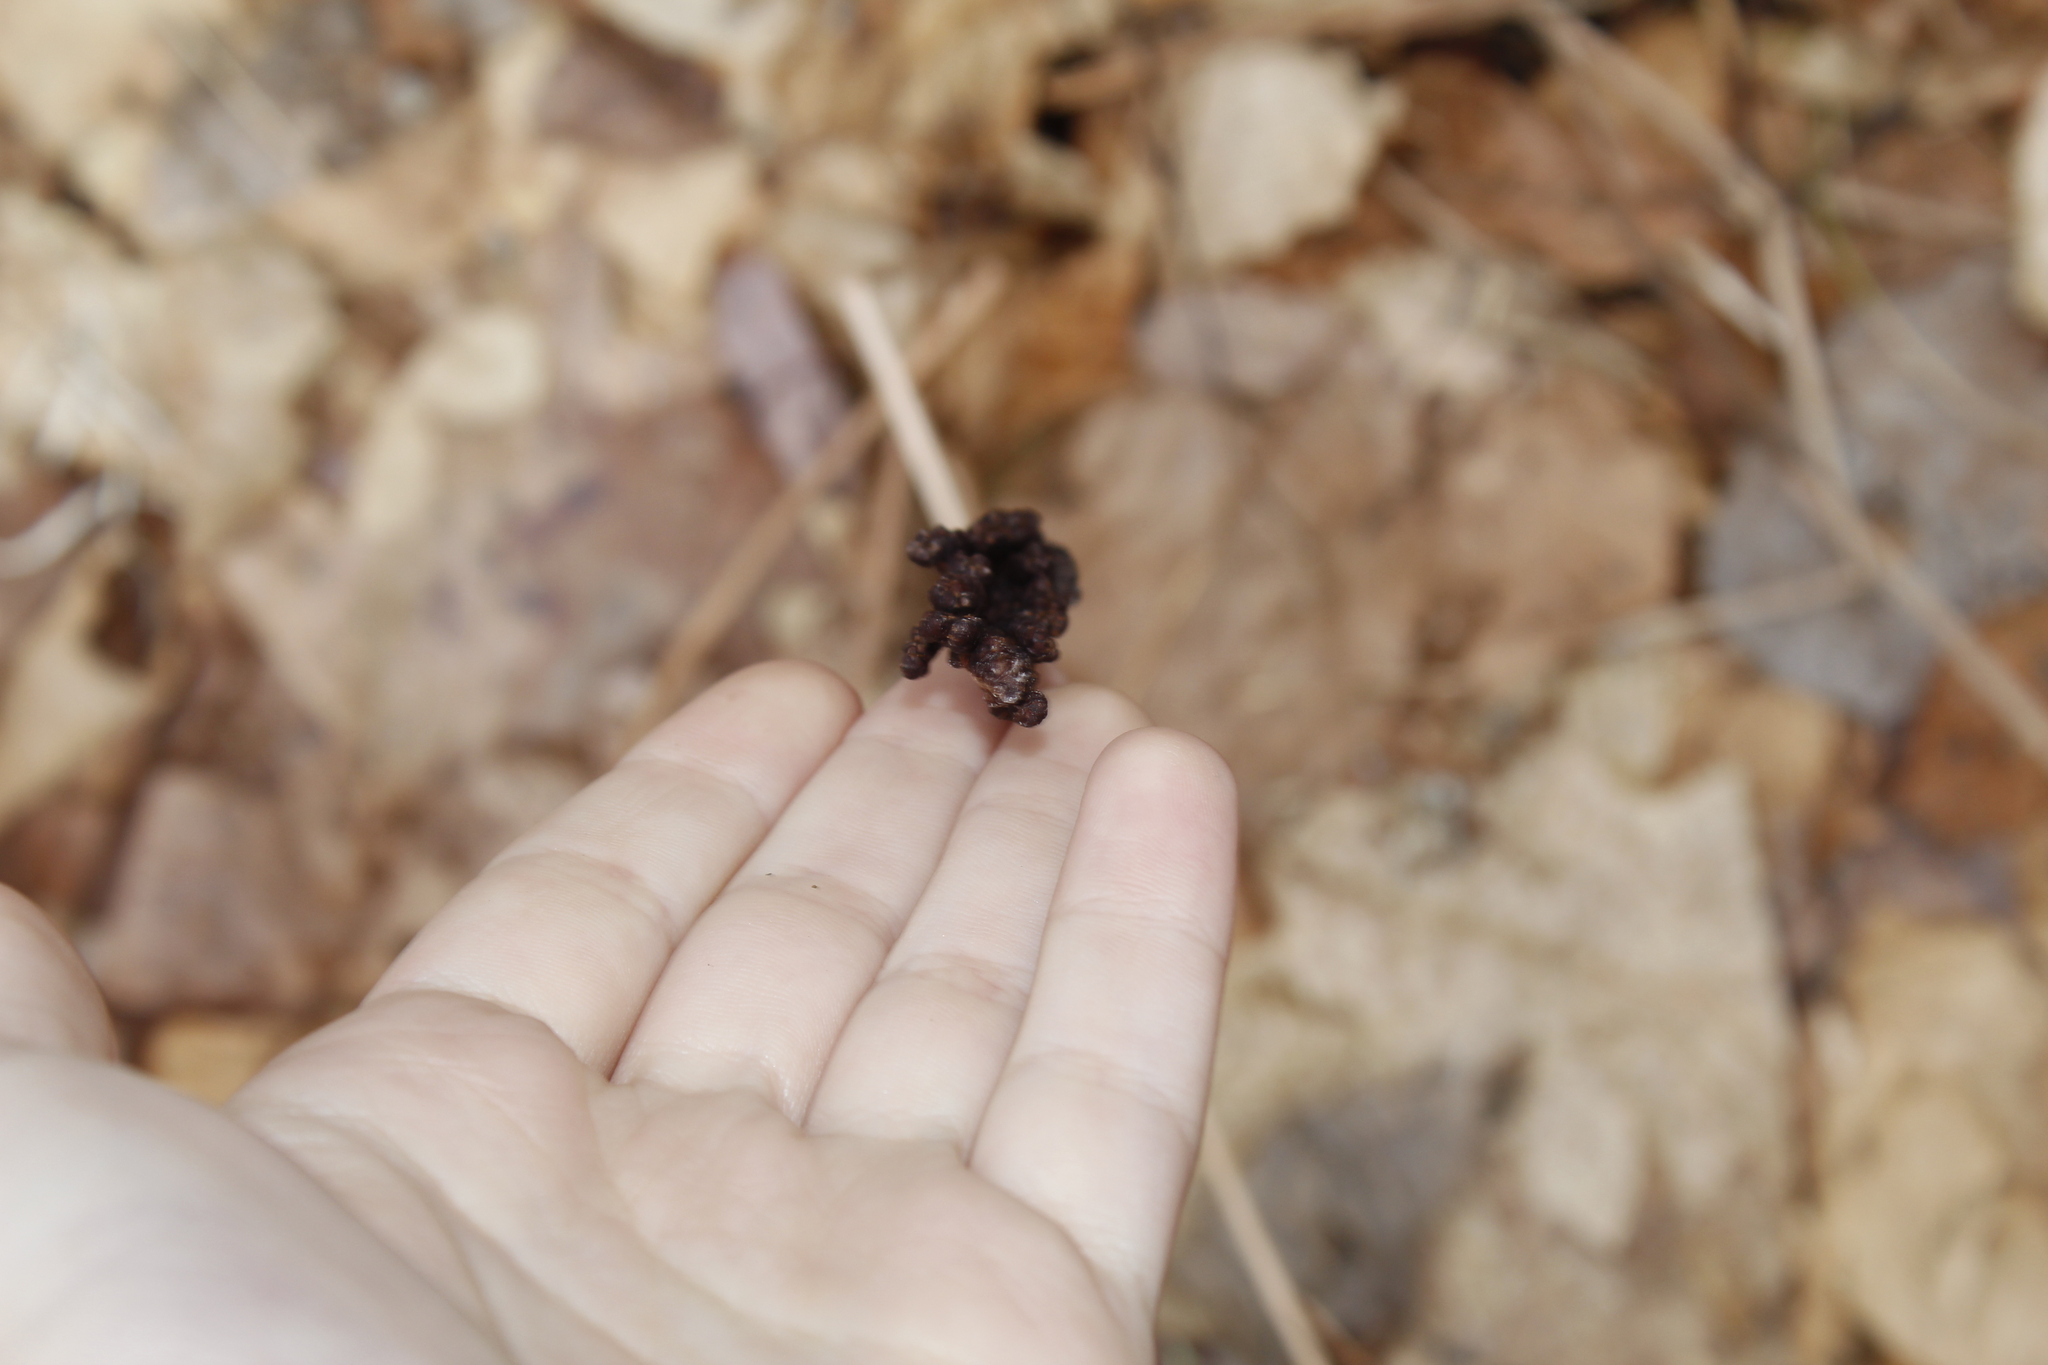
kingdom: Plantae
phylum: Tracheophyta
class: Polypodiopsida
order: Polypodiales
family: Onocleaceae
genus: Onoclea
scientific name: Onoclea sensibilis
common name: Sensitive fern
